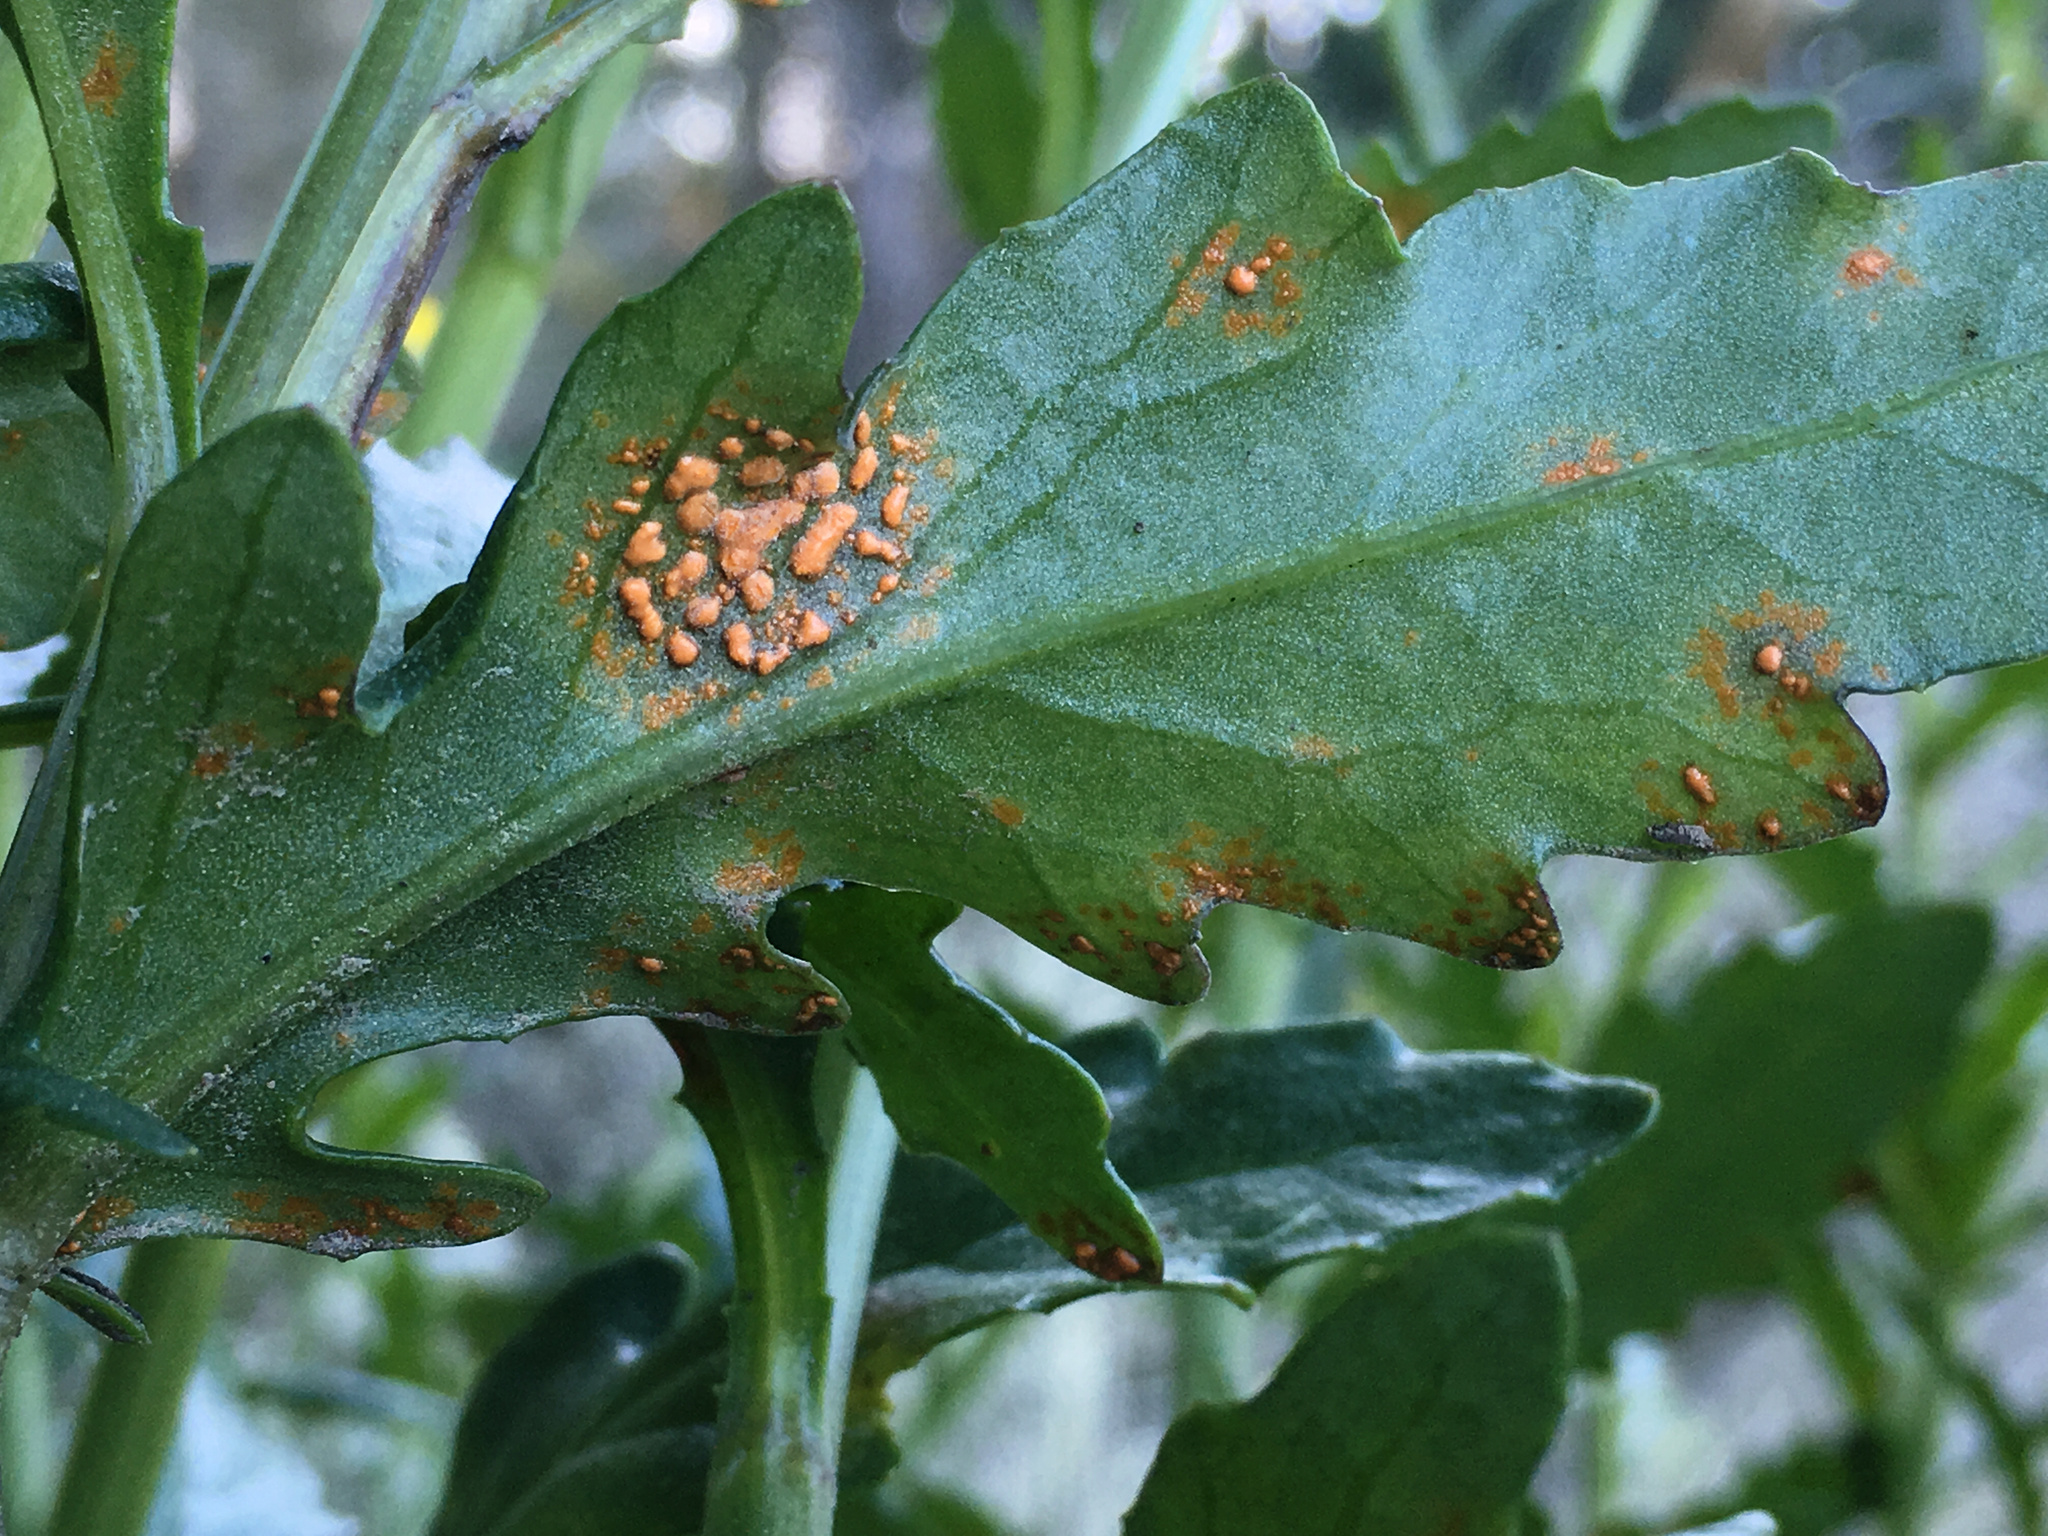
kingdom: Fungi
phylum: Basidiomycota
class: Pucciniomycetes
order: Pucciniales
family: Coleosporiaceae
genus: Coleosporium
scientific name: Coleosporium tussilaginis
